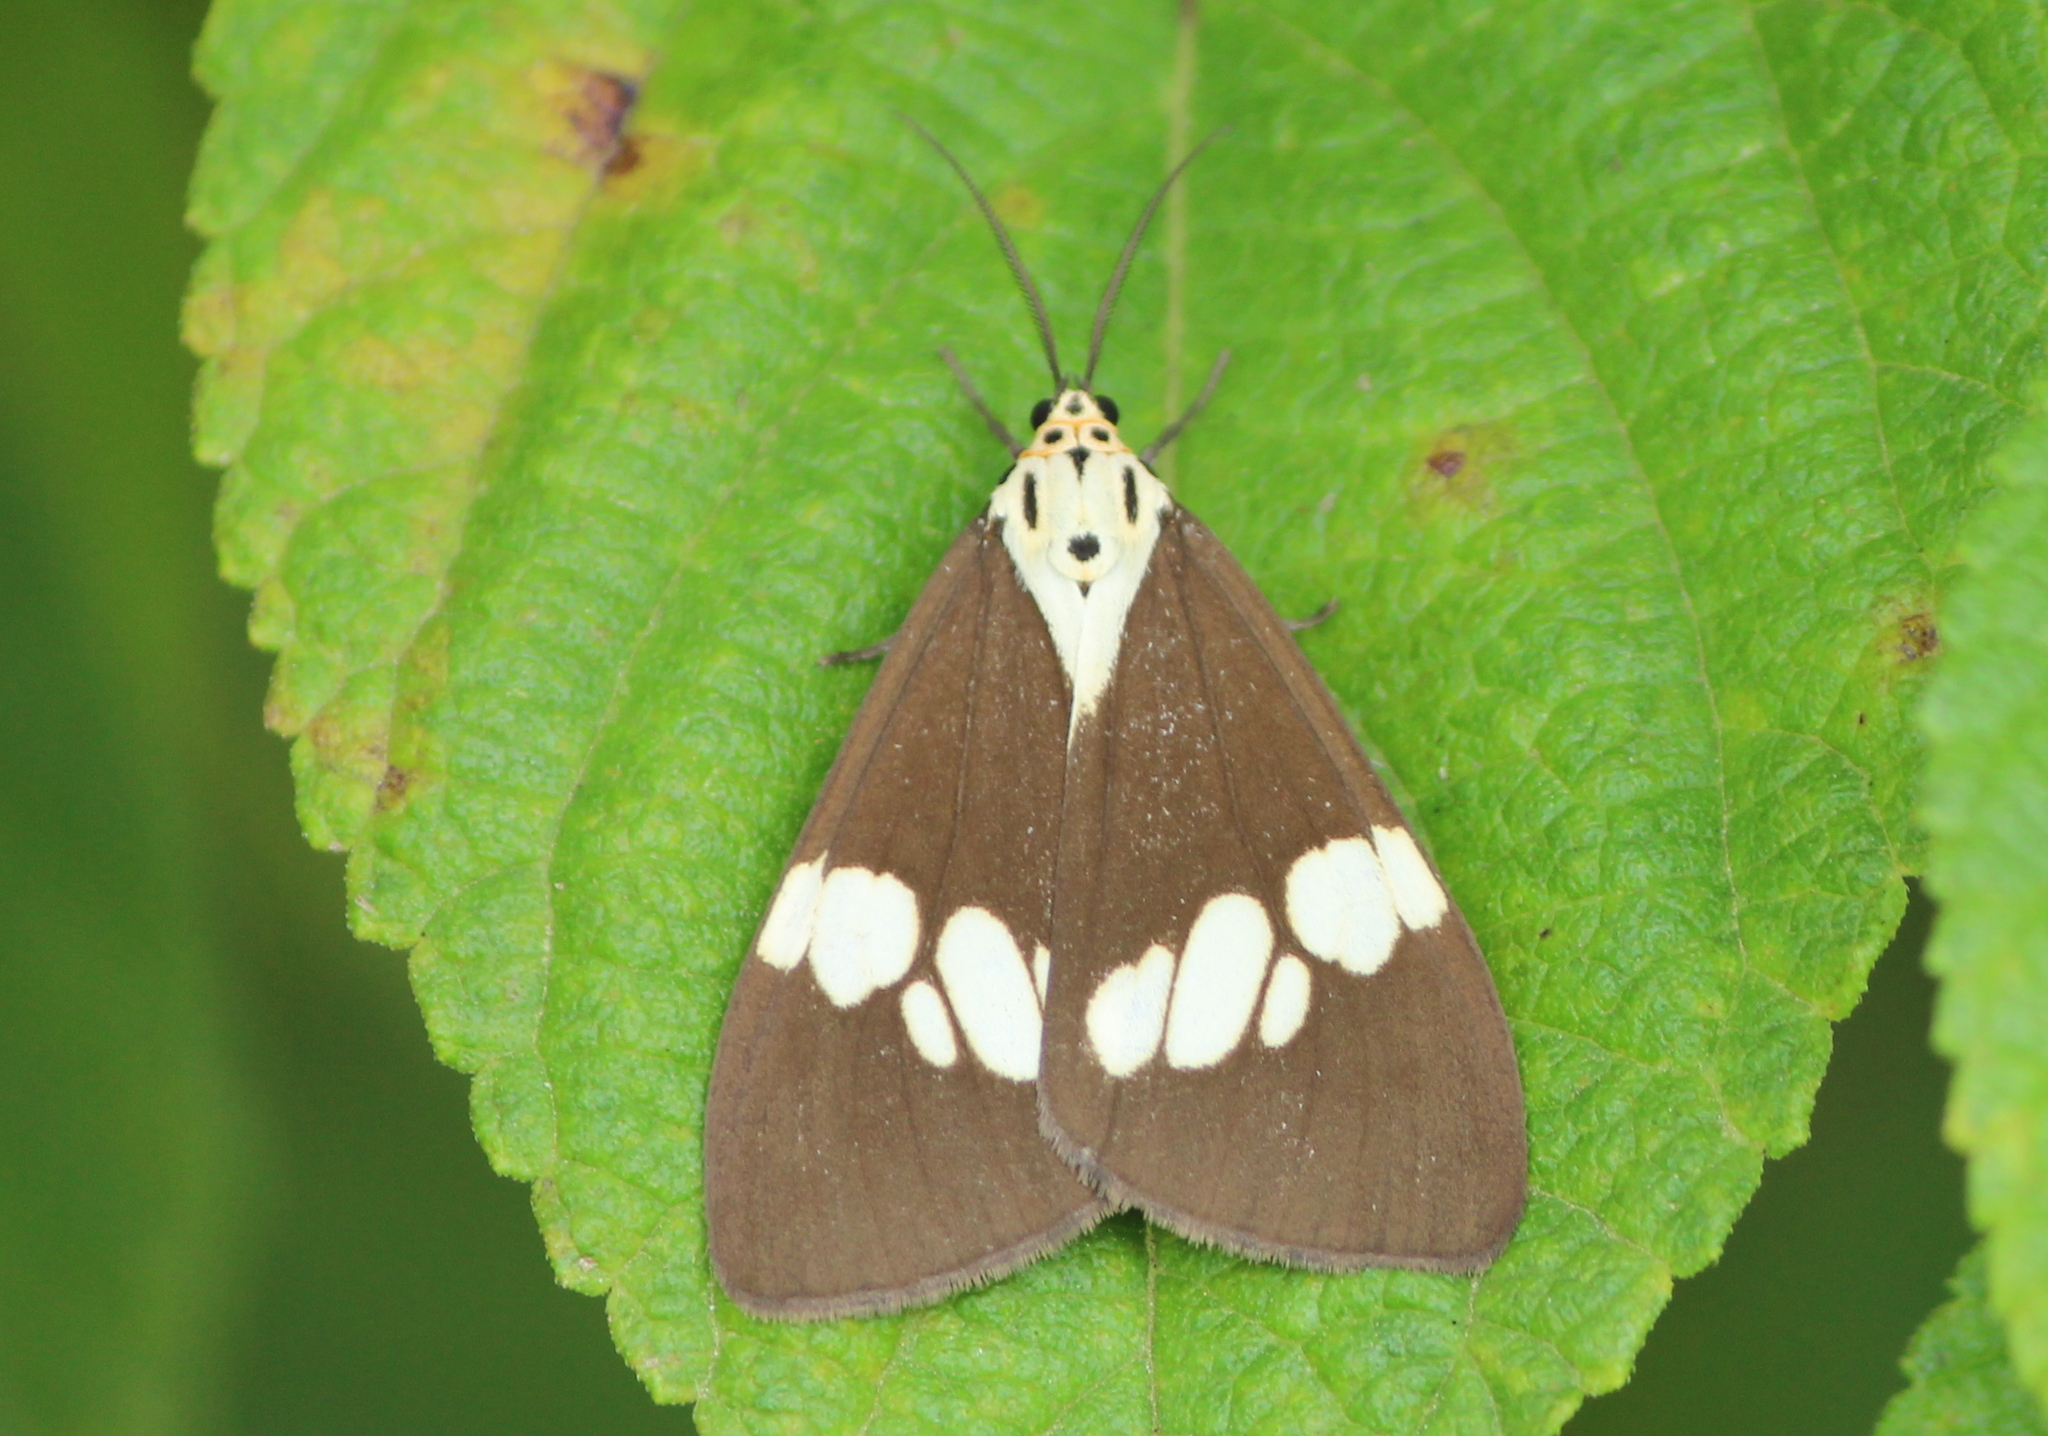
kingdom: Animalia
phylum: Arthropoda
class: Insecta
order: Lepidoptera
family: Erebidae
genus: Nyctemera
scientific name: Nyctemera lacticinia
